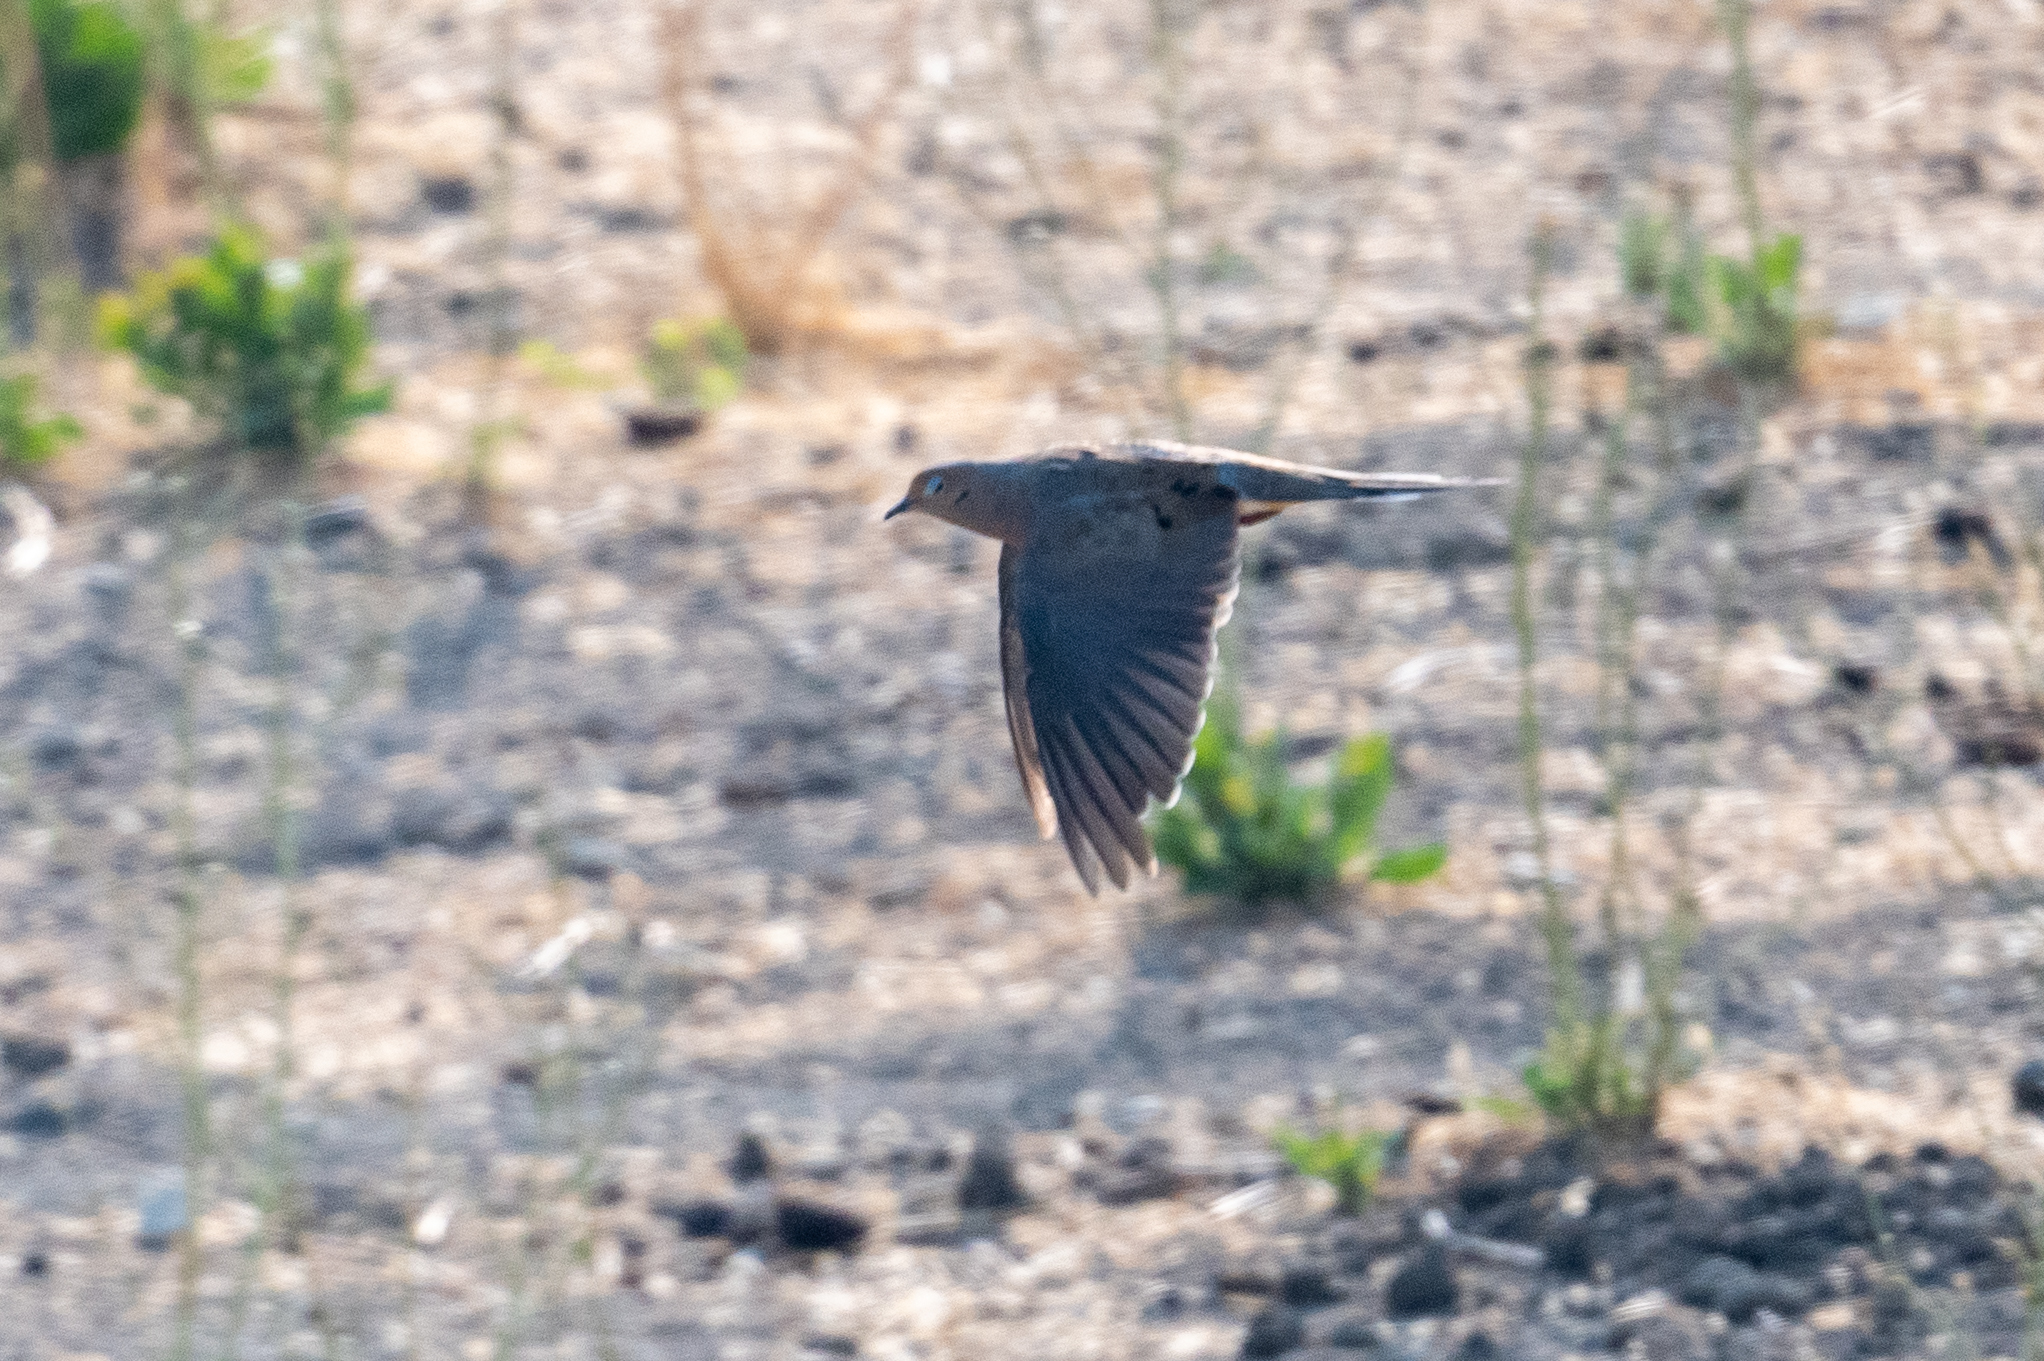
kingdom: Animalia
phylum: Chordata
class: Aves
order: Columbiformes
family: Columbidae
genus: Zenaida
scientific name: Zenaida macroura
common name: Mourning dove
